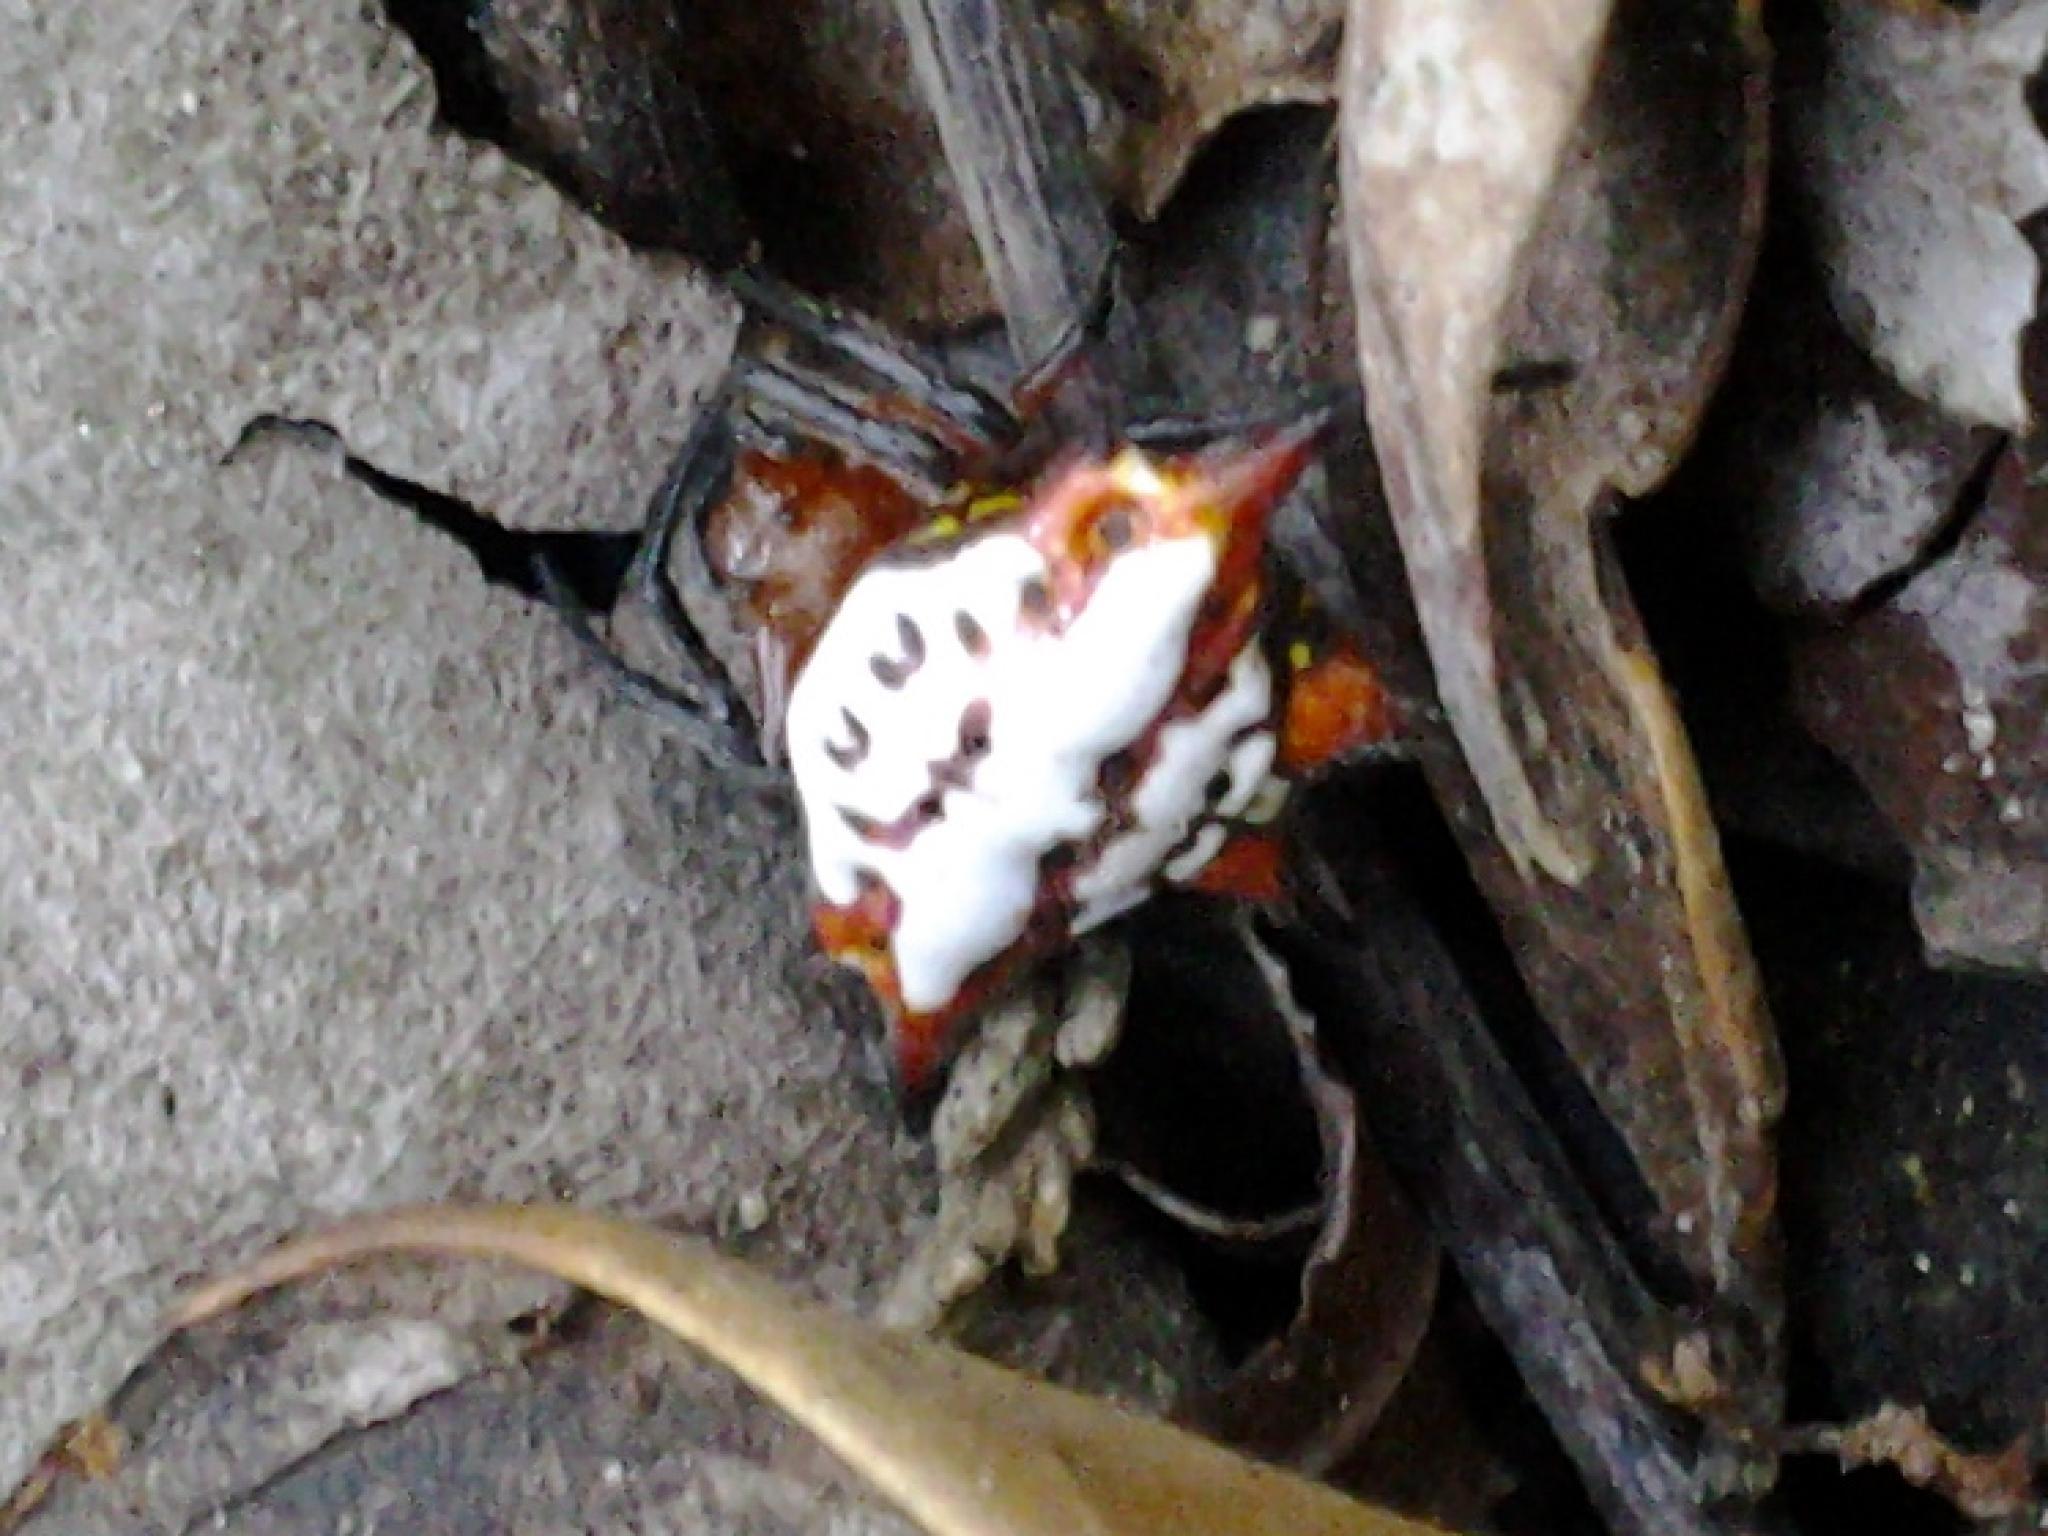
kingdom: Animalia
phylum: Arthropoda
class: Arachnida
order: Araneae
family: Araneidae
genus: Gasteracantha
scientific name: Gasteracantha sanguinolenta
